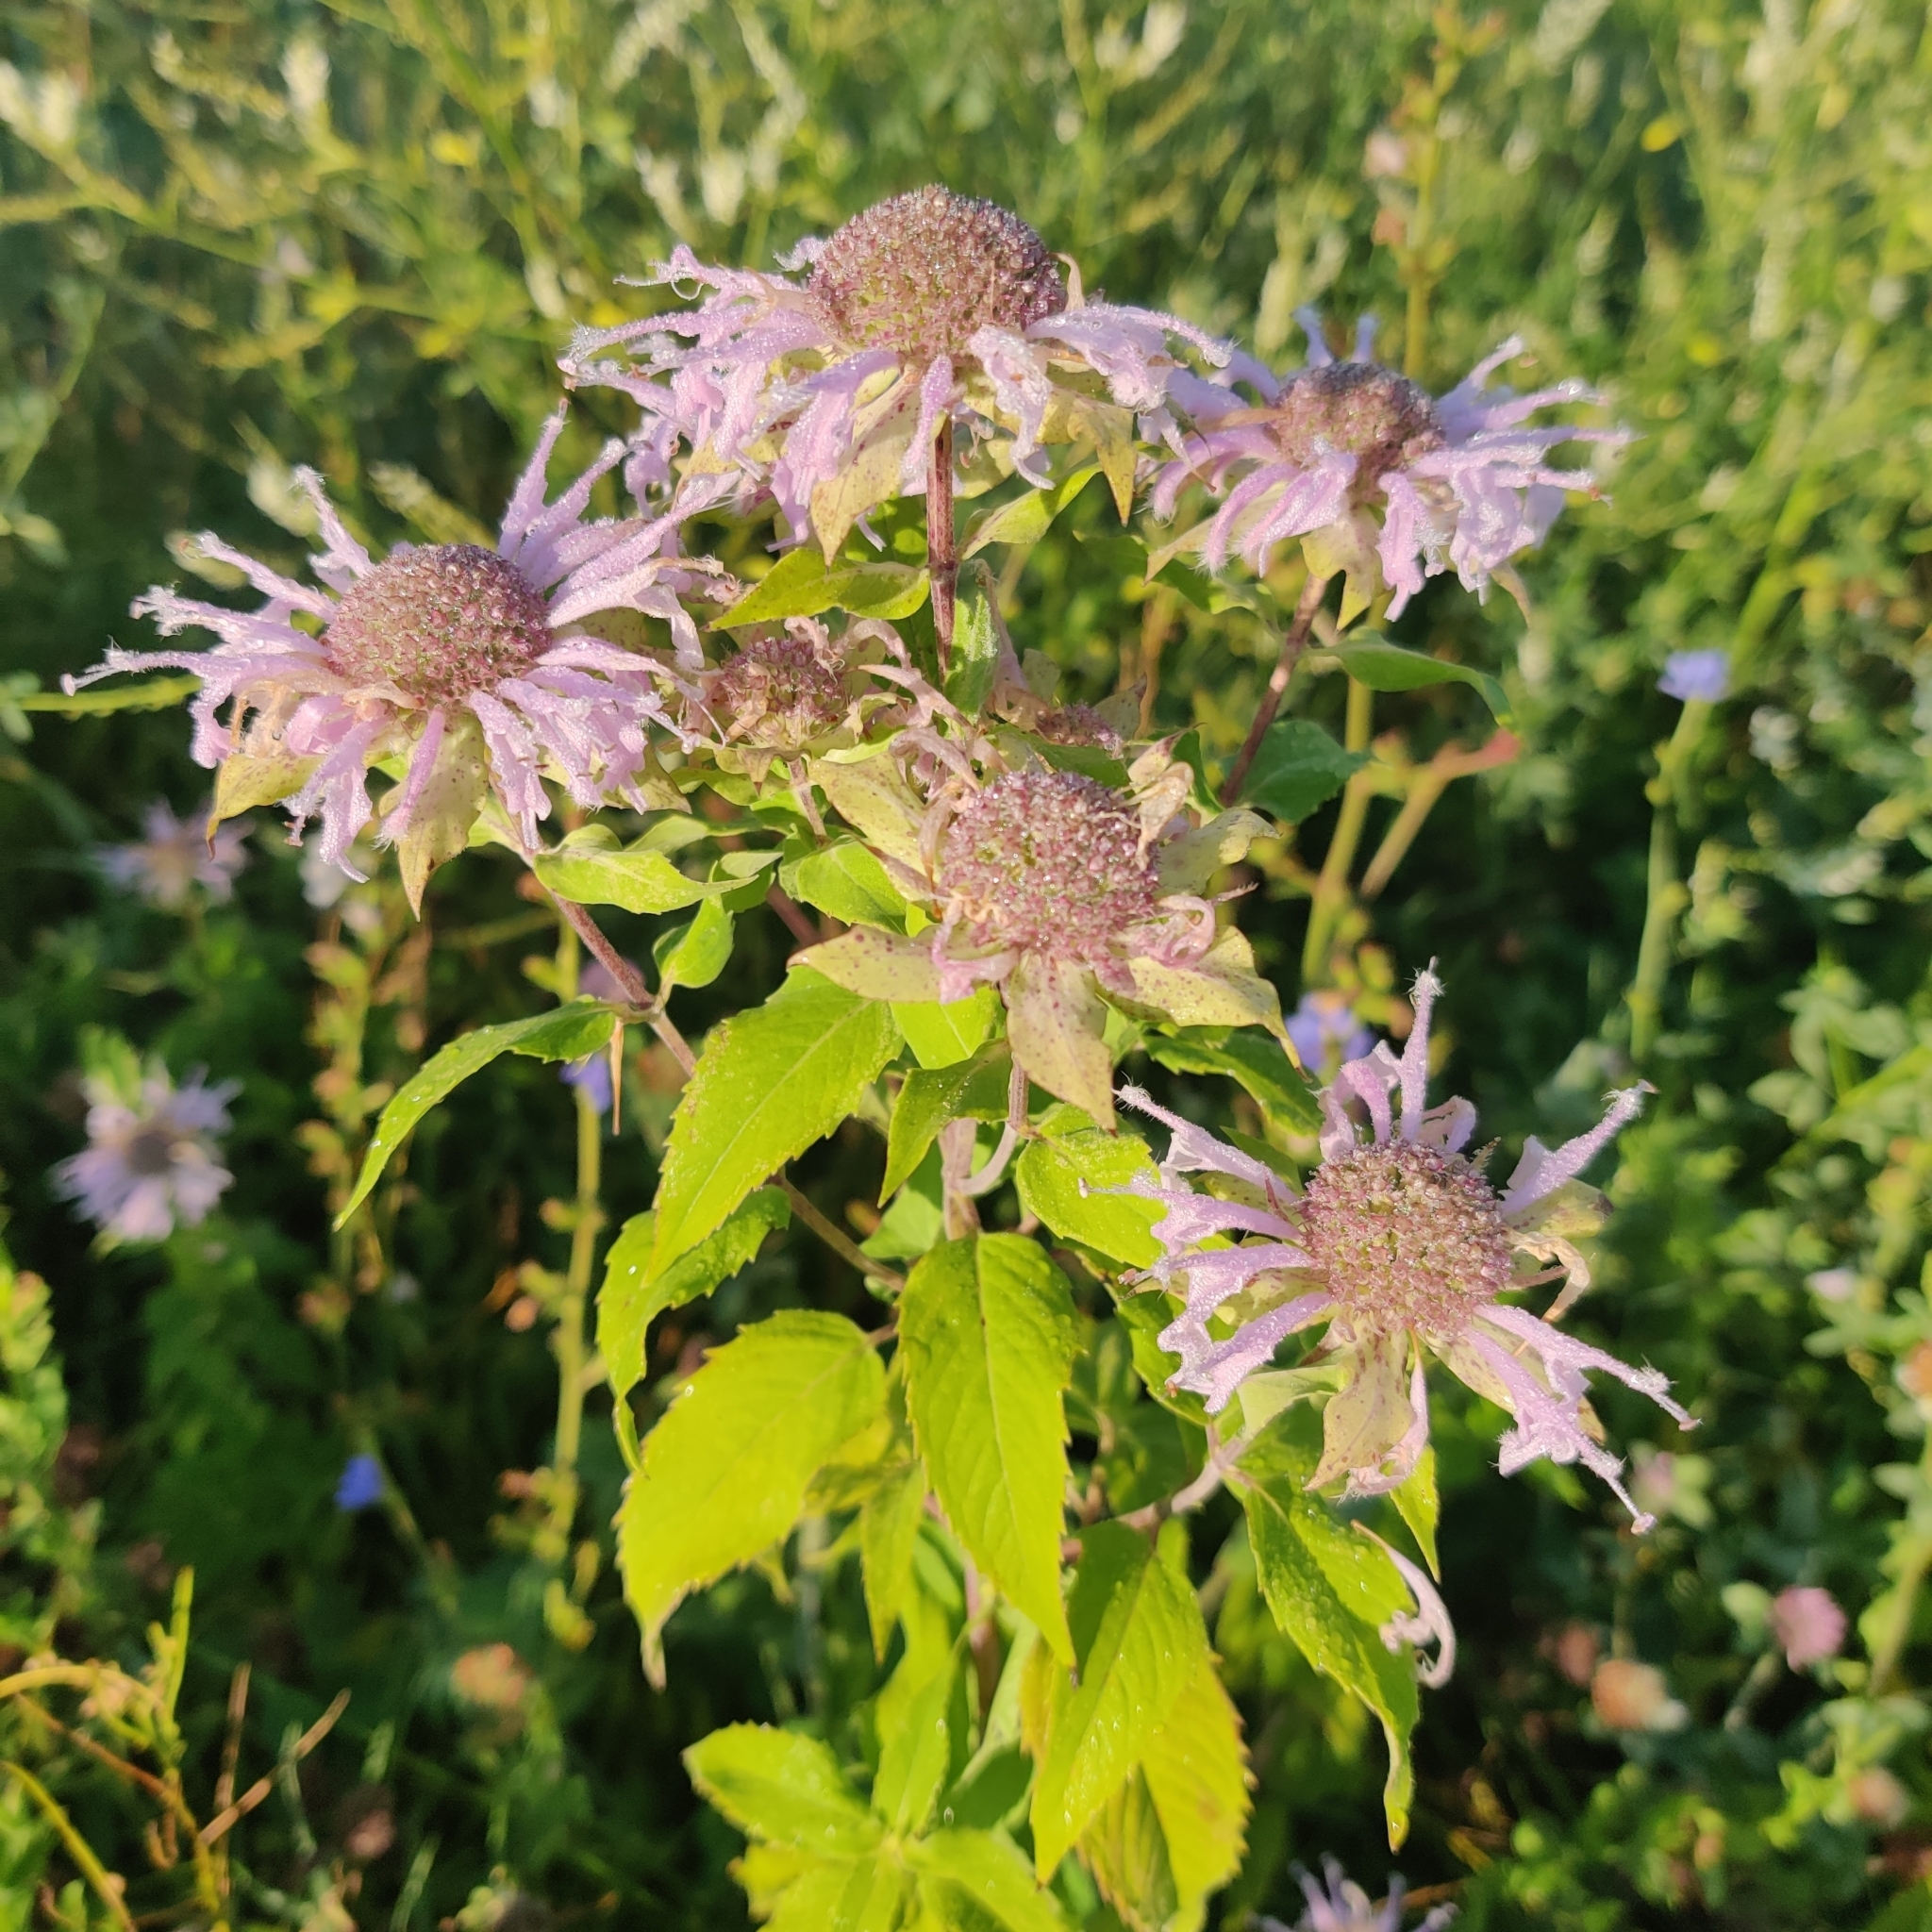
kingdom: Plantae
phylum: Tracheophyta
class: Magnoliopsida
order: Lamiales
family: Lamiaceae
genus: Monarda
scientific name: Monarda fistulosa
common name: Purple beebalm
